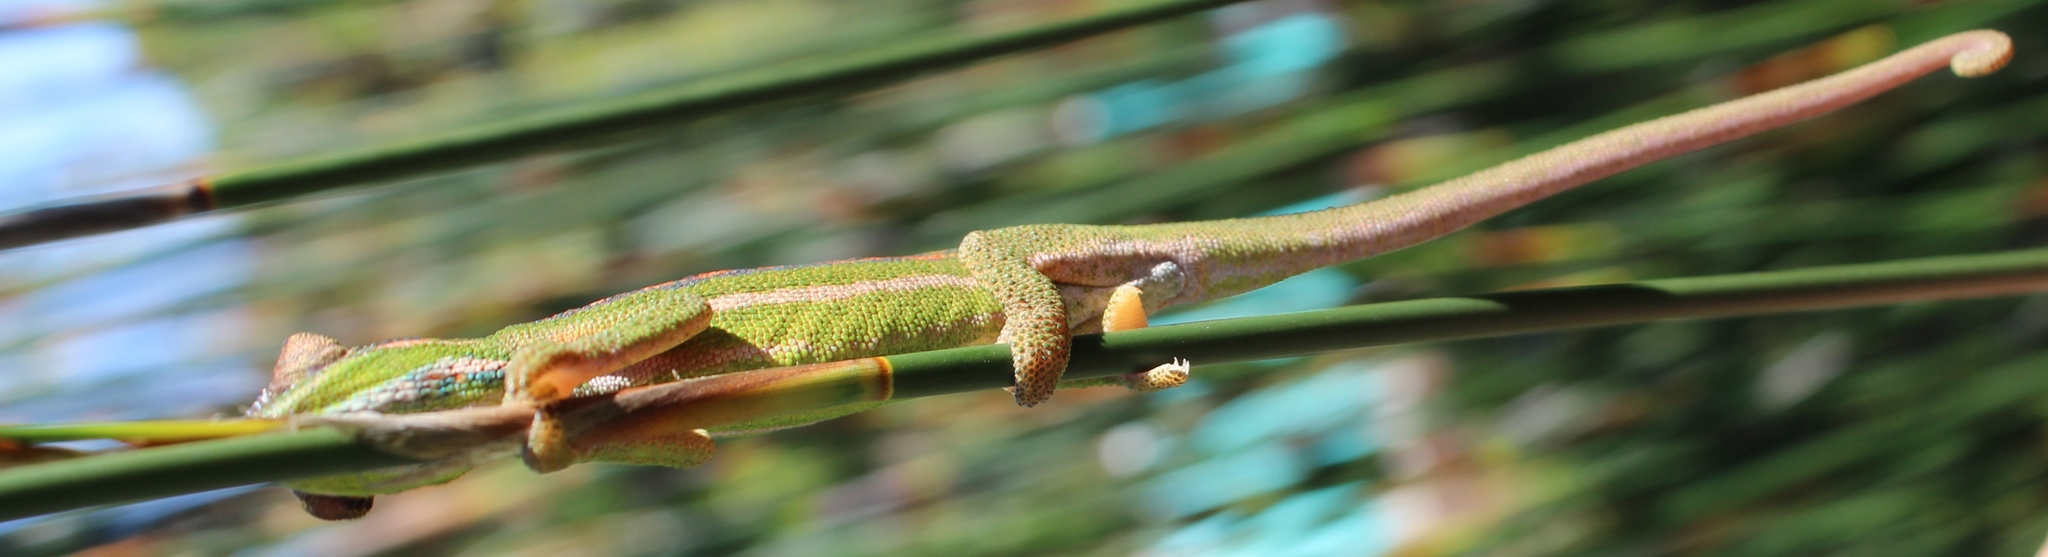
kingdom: Animalia
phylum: Chordata
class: Squamata
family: Chamaeleonidae
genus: Bradypodion
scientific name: Bradypodion pumilum
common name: Cape dwarf chameleon
